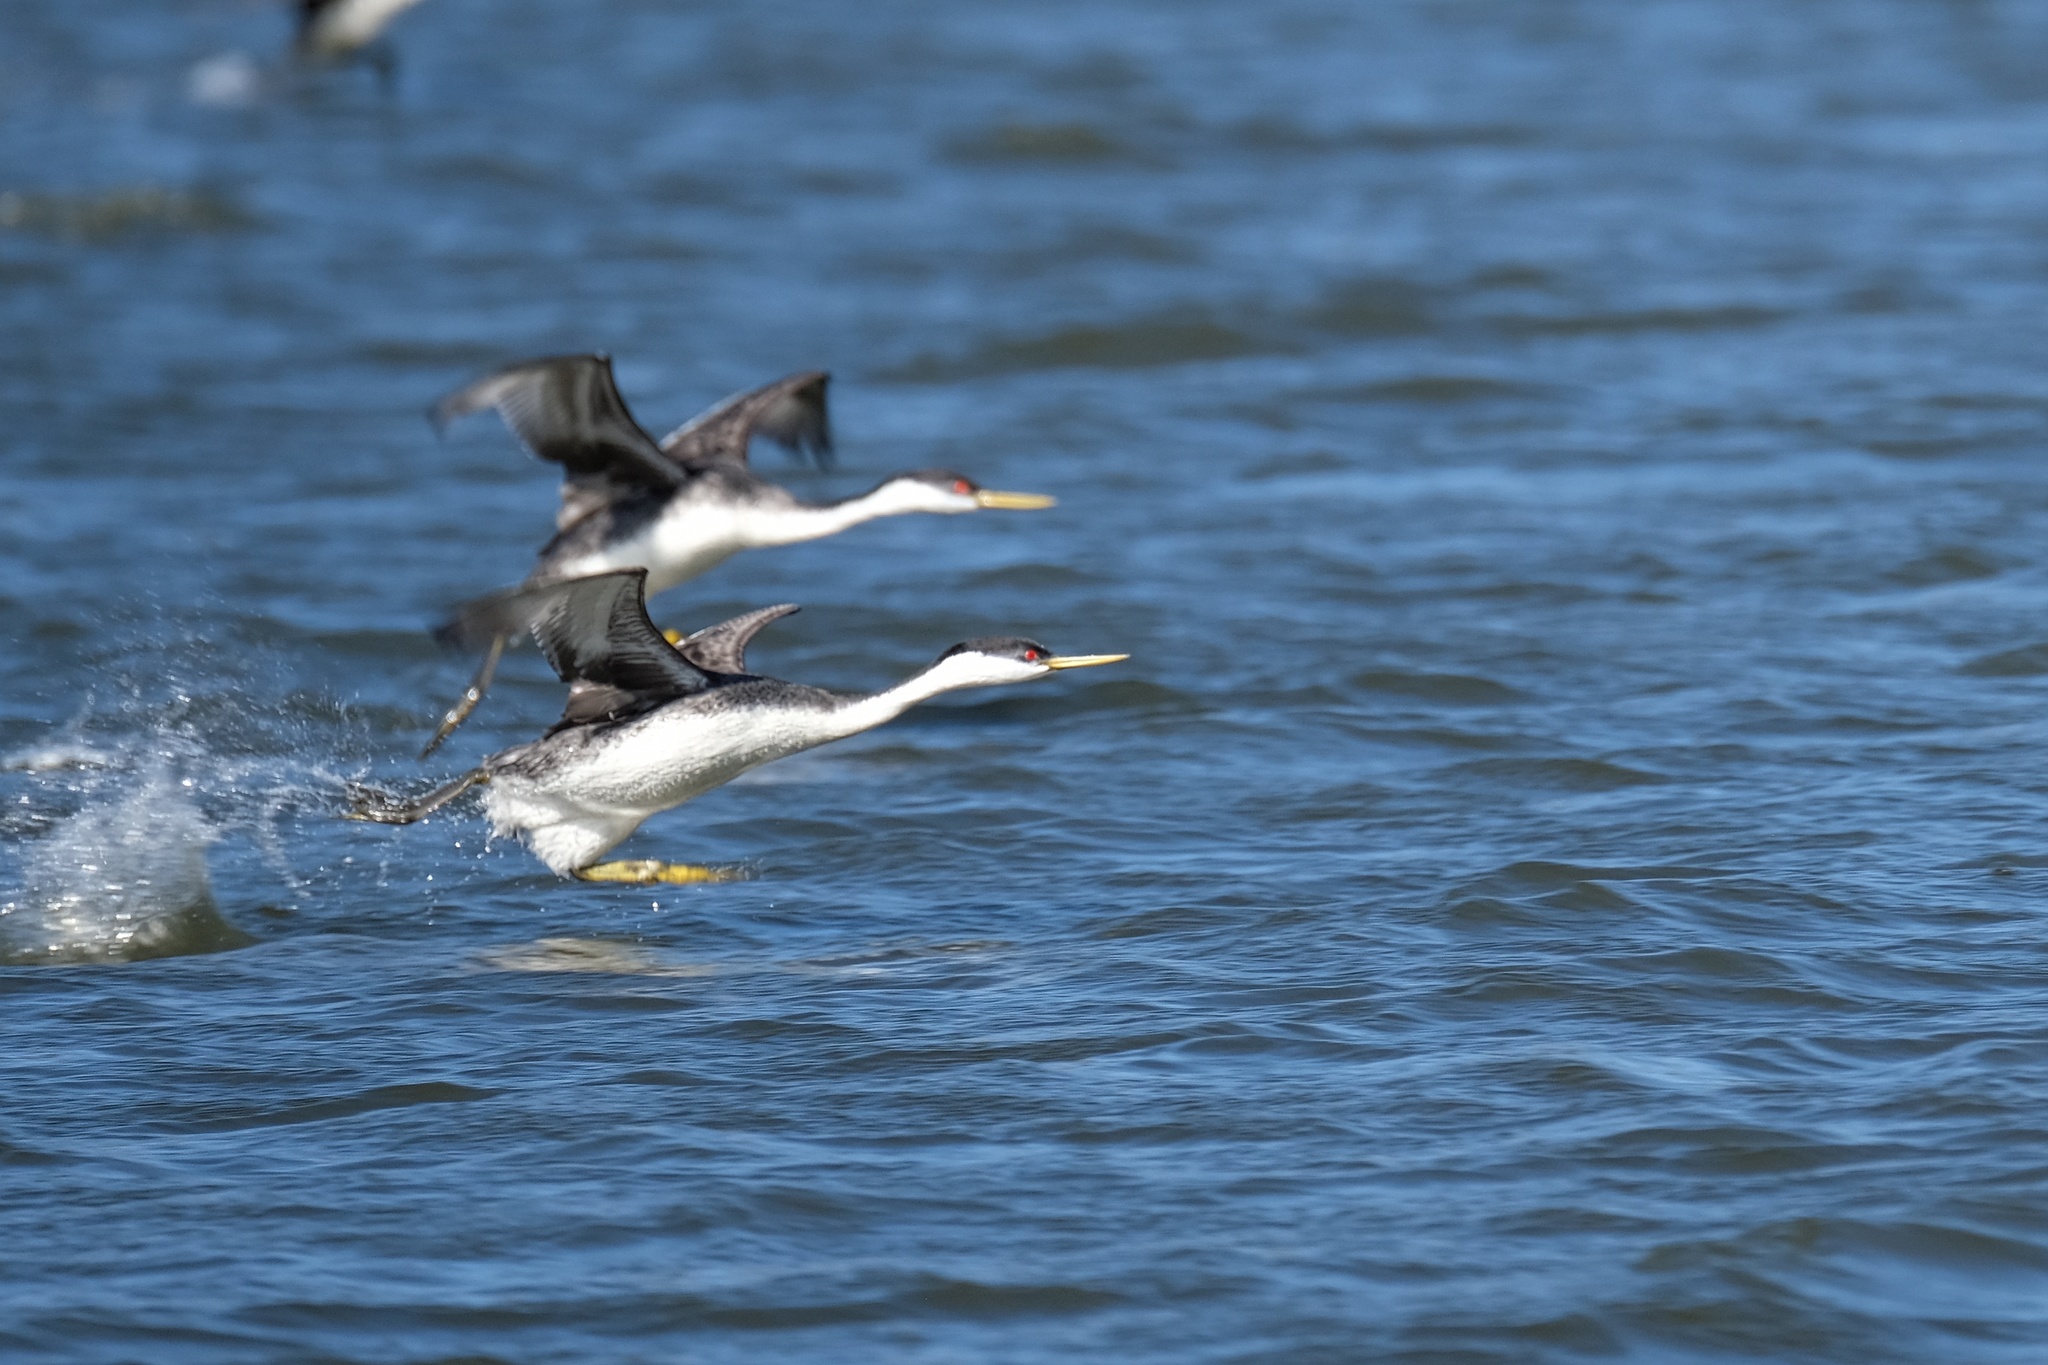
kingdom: Animalia
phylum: Chordata
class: Aves
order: Podicipediformes
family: Podicipedidae
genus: Aechmophorus
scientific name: Aechmophorus occidentalis
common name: Western grebe
